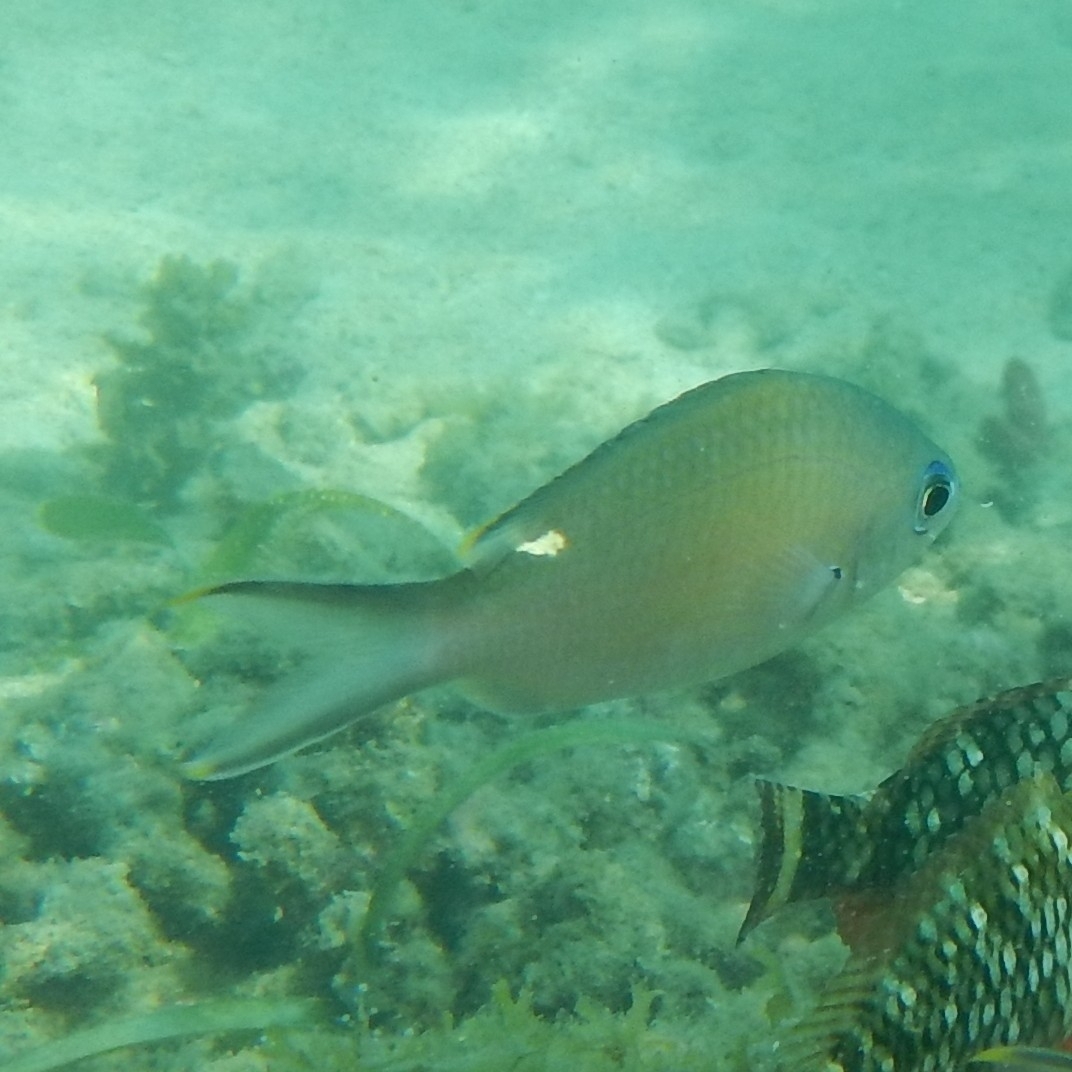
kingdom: Animalia
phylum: Chordata
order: Perciformes
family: Pomacentridae
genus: Chromis
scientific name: Chromis multilineata
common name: Brown chromis
